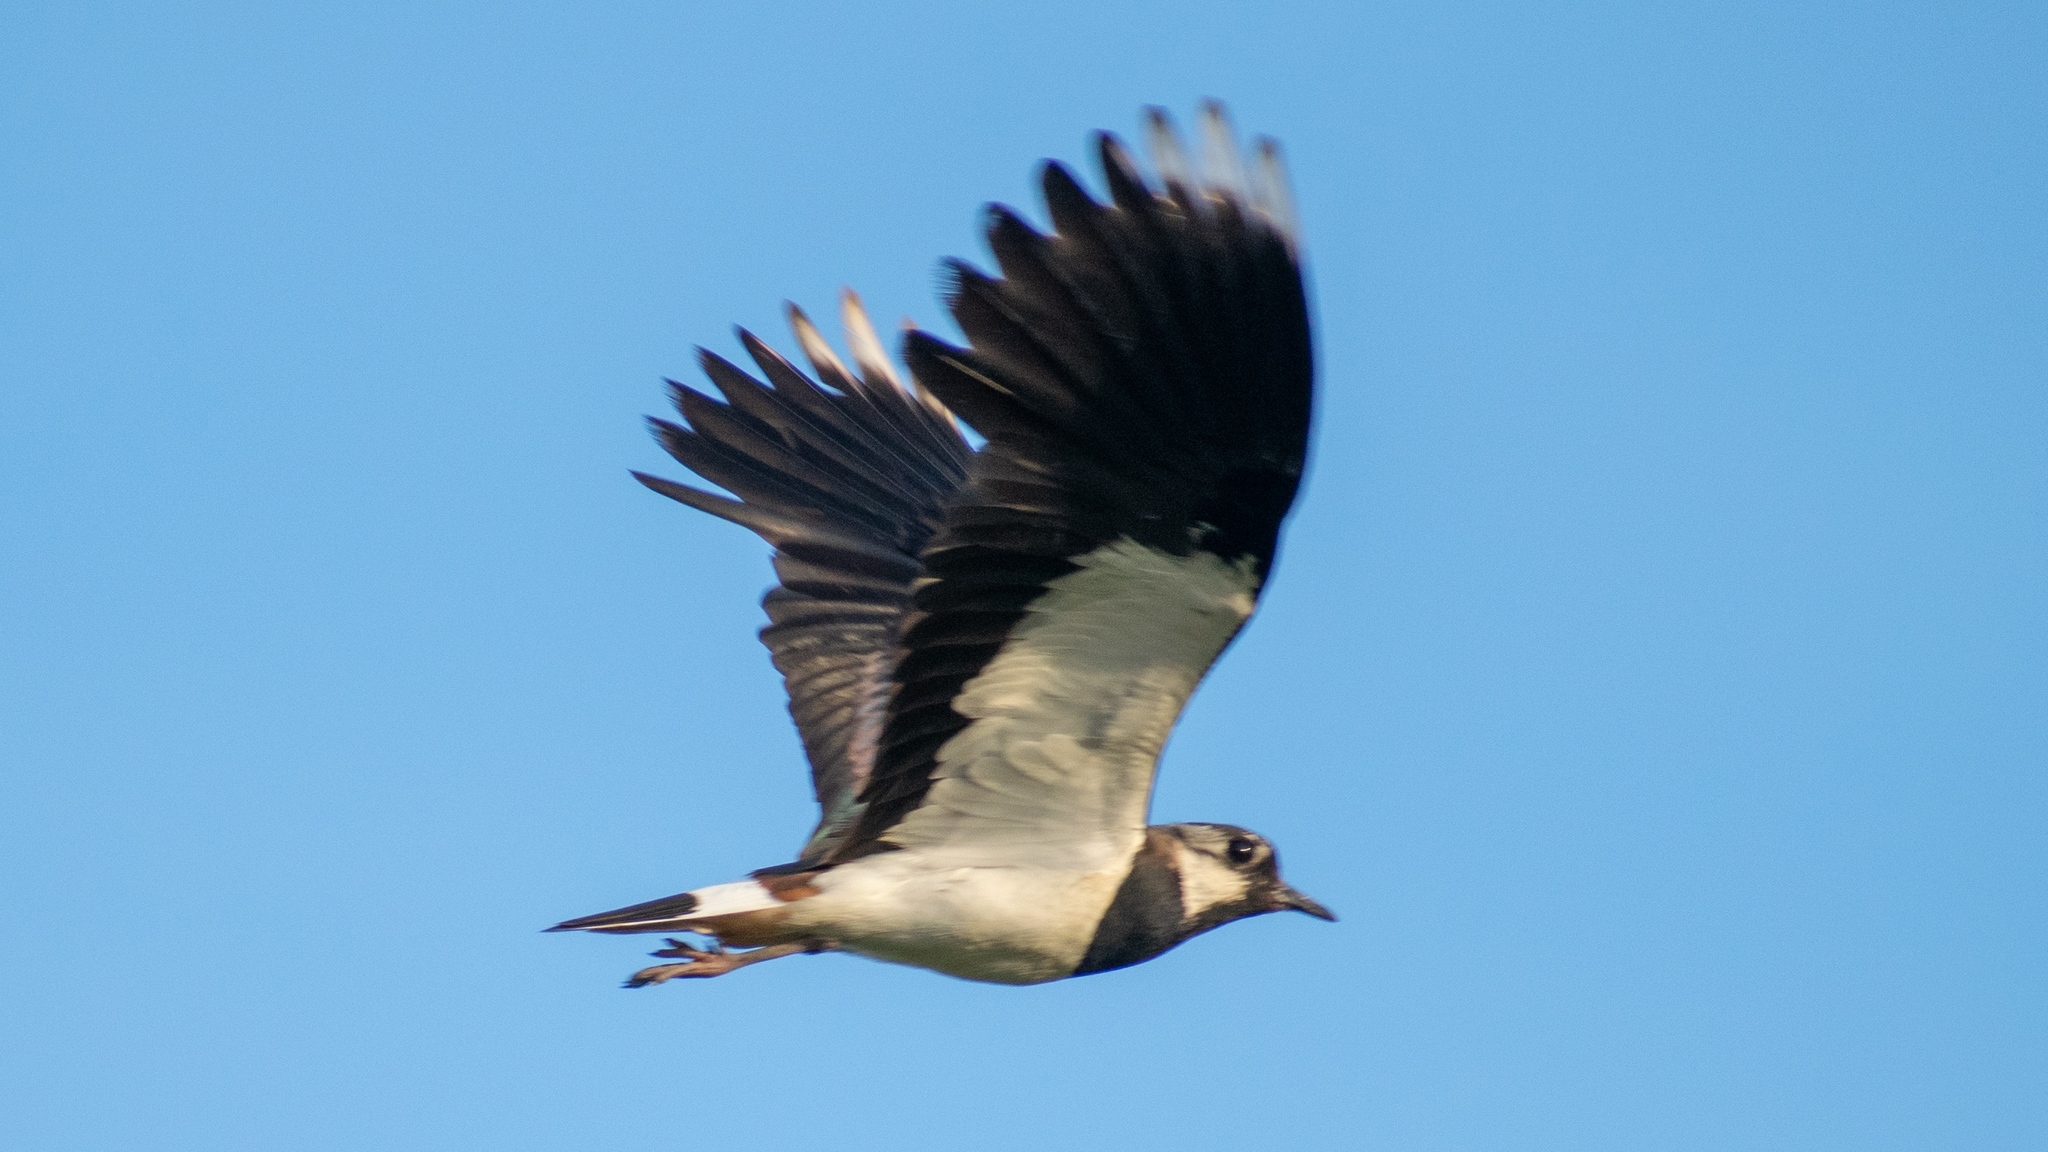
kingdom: Animalia
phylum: Chordata
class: Aves
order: Charadriiformes
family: Charadriidae
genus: Vanellus
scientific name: Vanellus vanellus
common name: Northern lapwing
